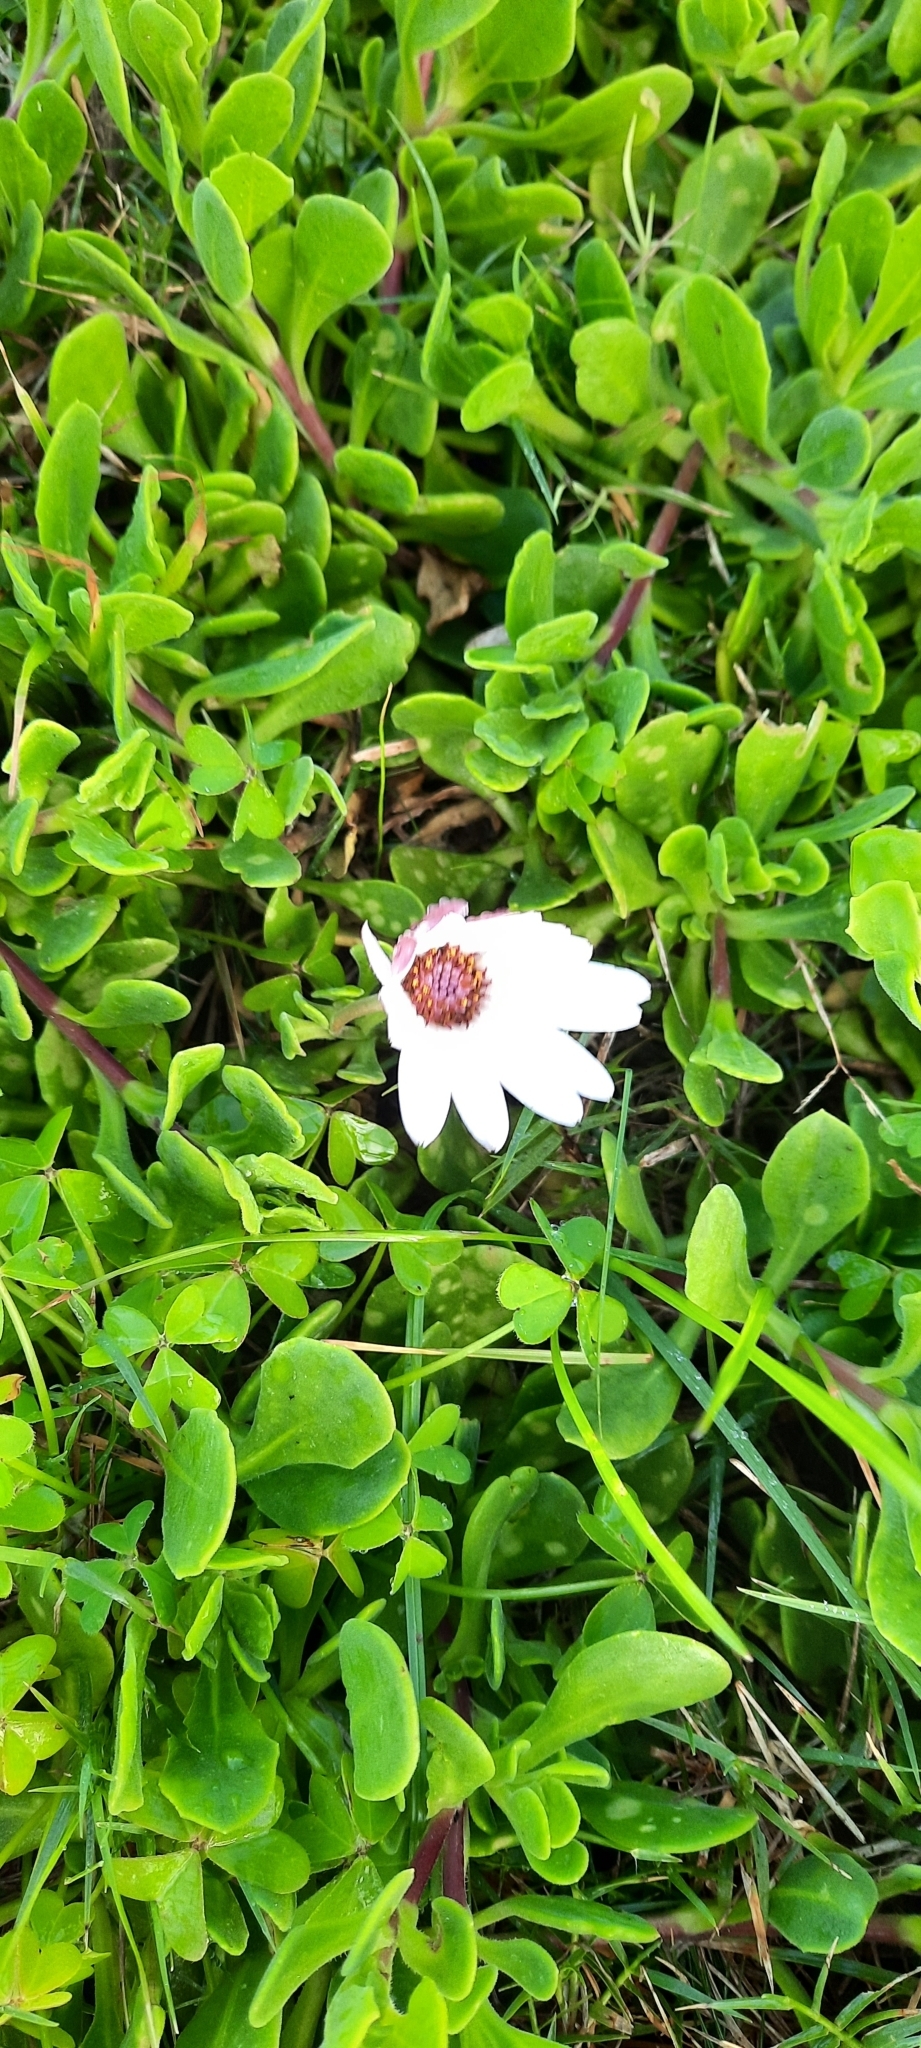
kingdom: Plantae
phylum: Tracheophyta
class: Magnoliopsida
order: Asterales
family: Asteraceae
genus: Dimorphotheca
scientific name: Dimorphotheca fruticosa
